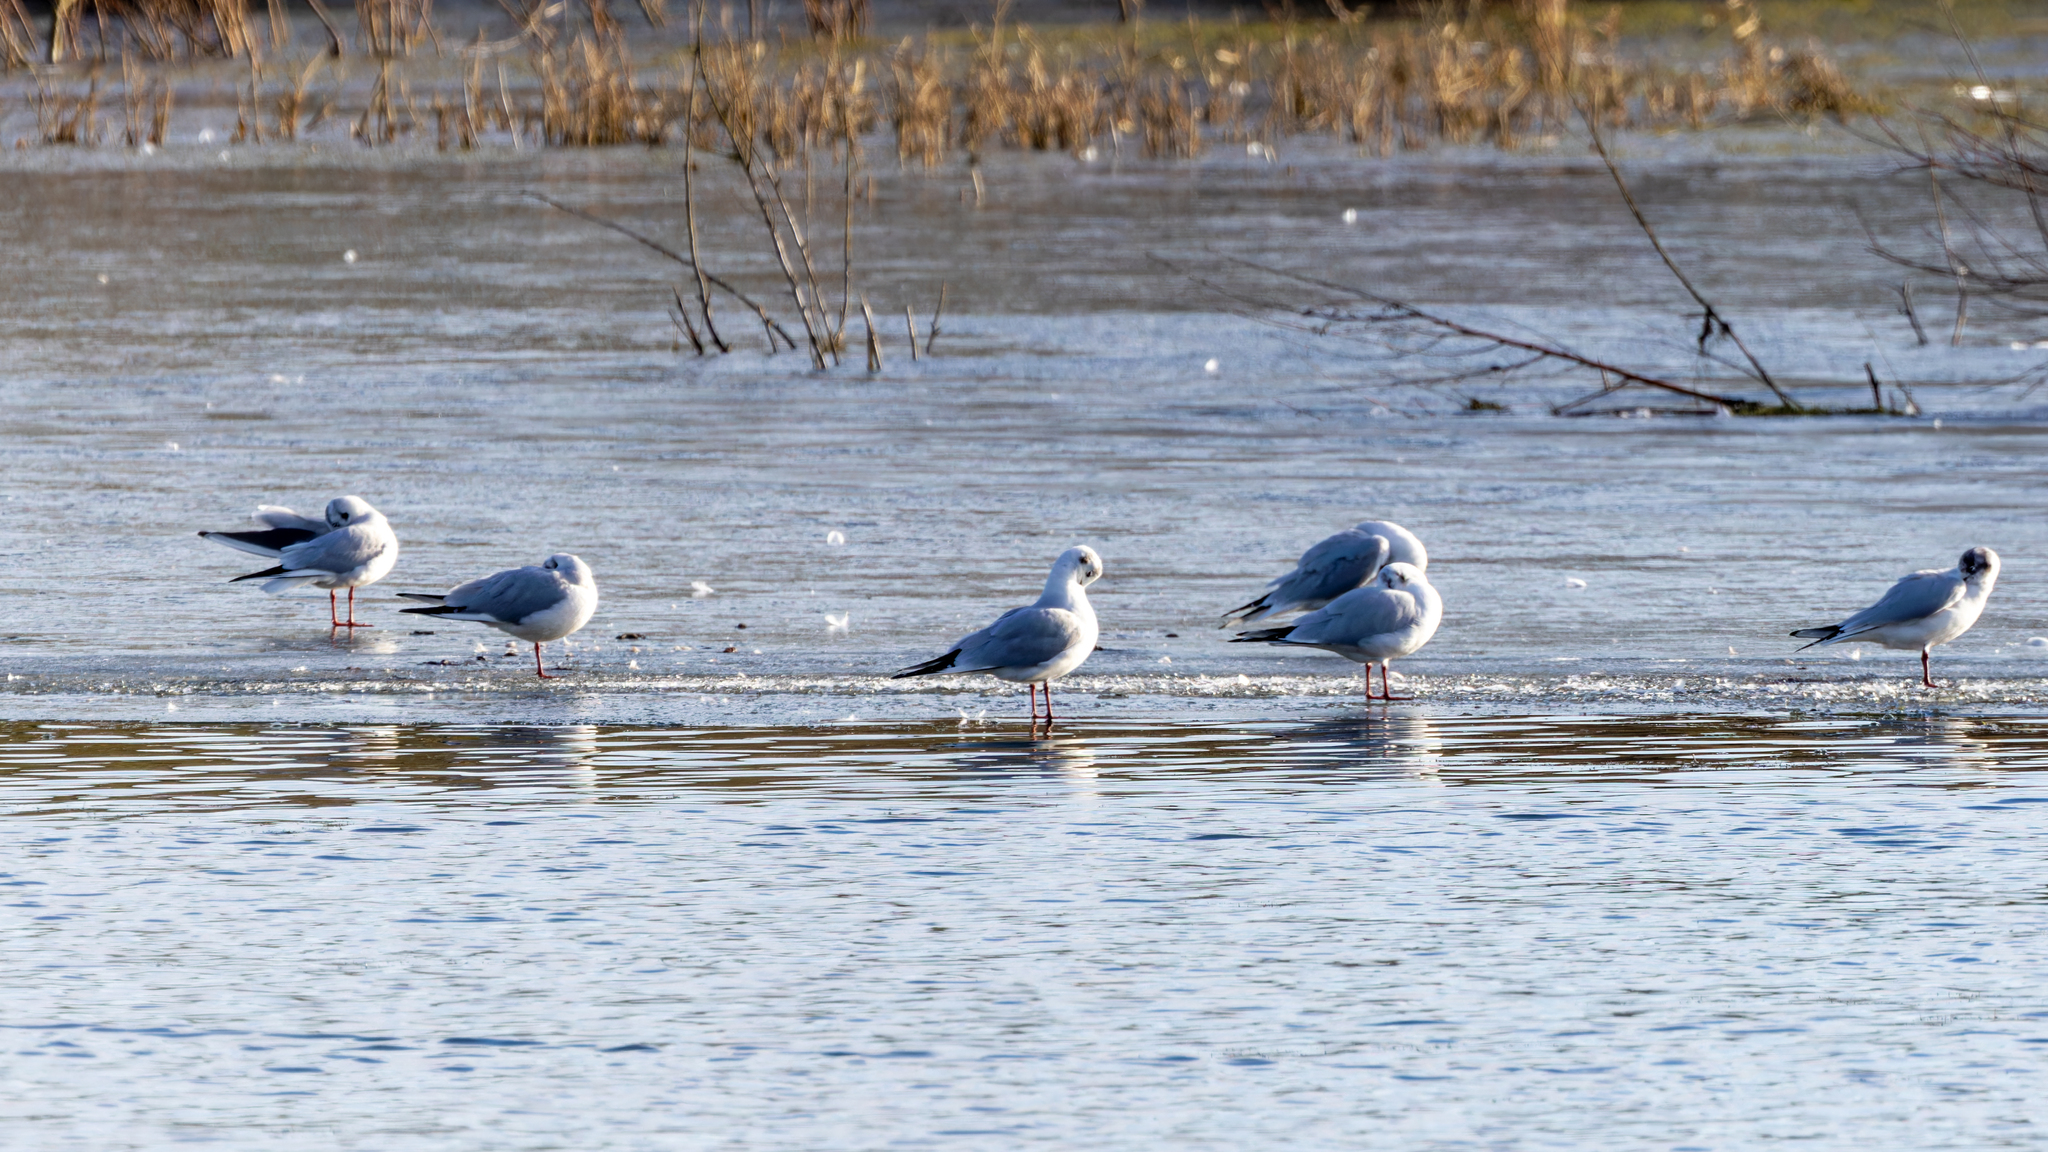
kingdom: Animalia
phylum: Chordata
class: Aves
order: Charadriiformes
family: Laridae
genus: Chroicocephalus
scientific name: Chroicocephalus ridibundus
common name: Black-headed gull
